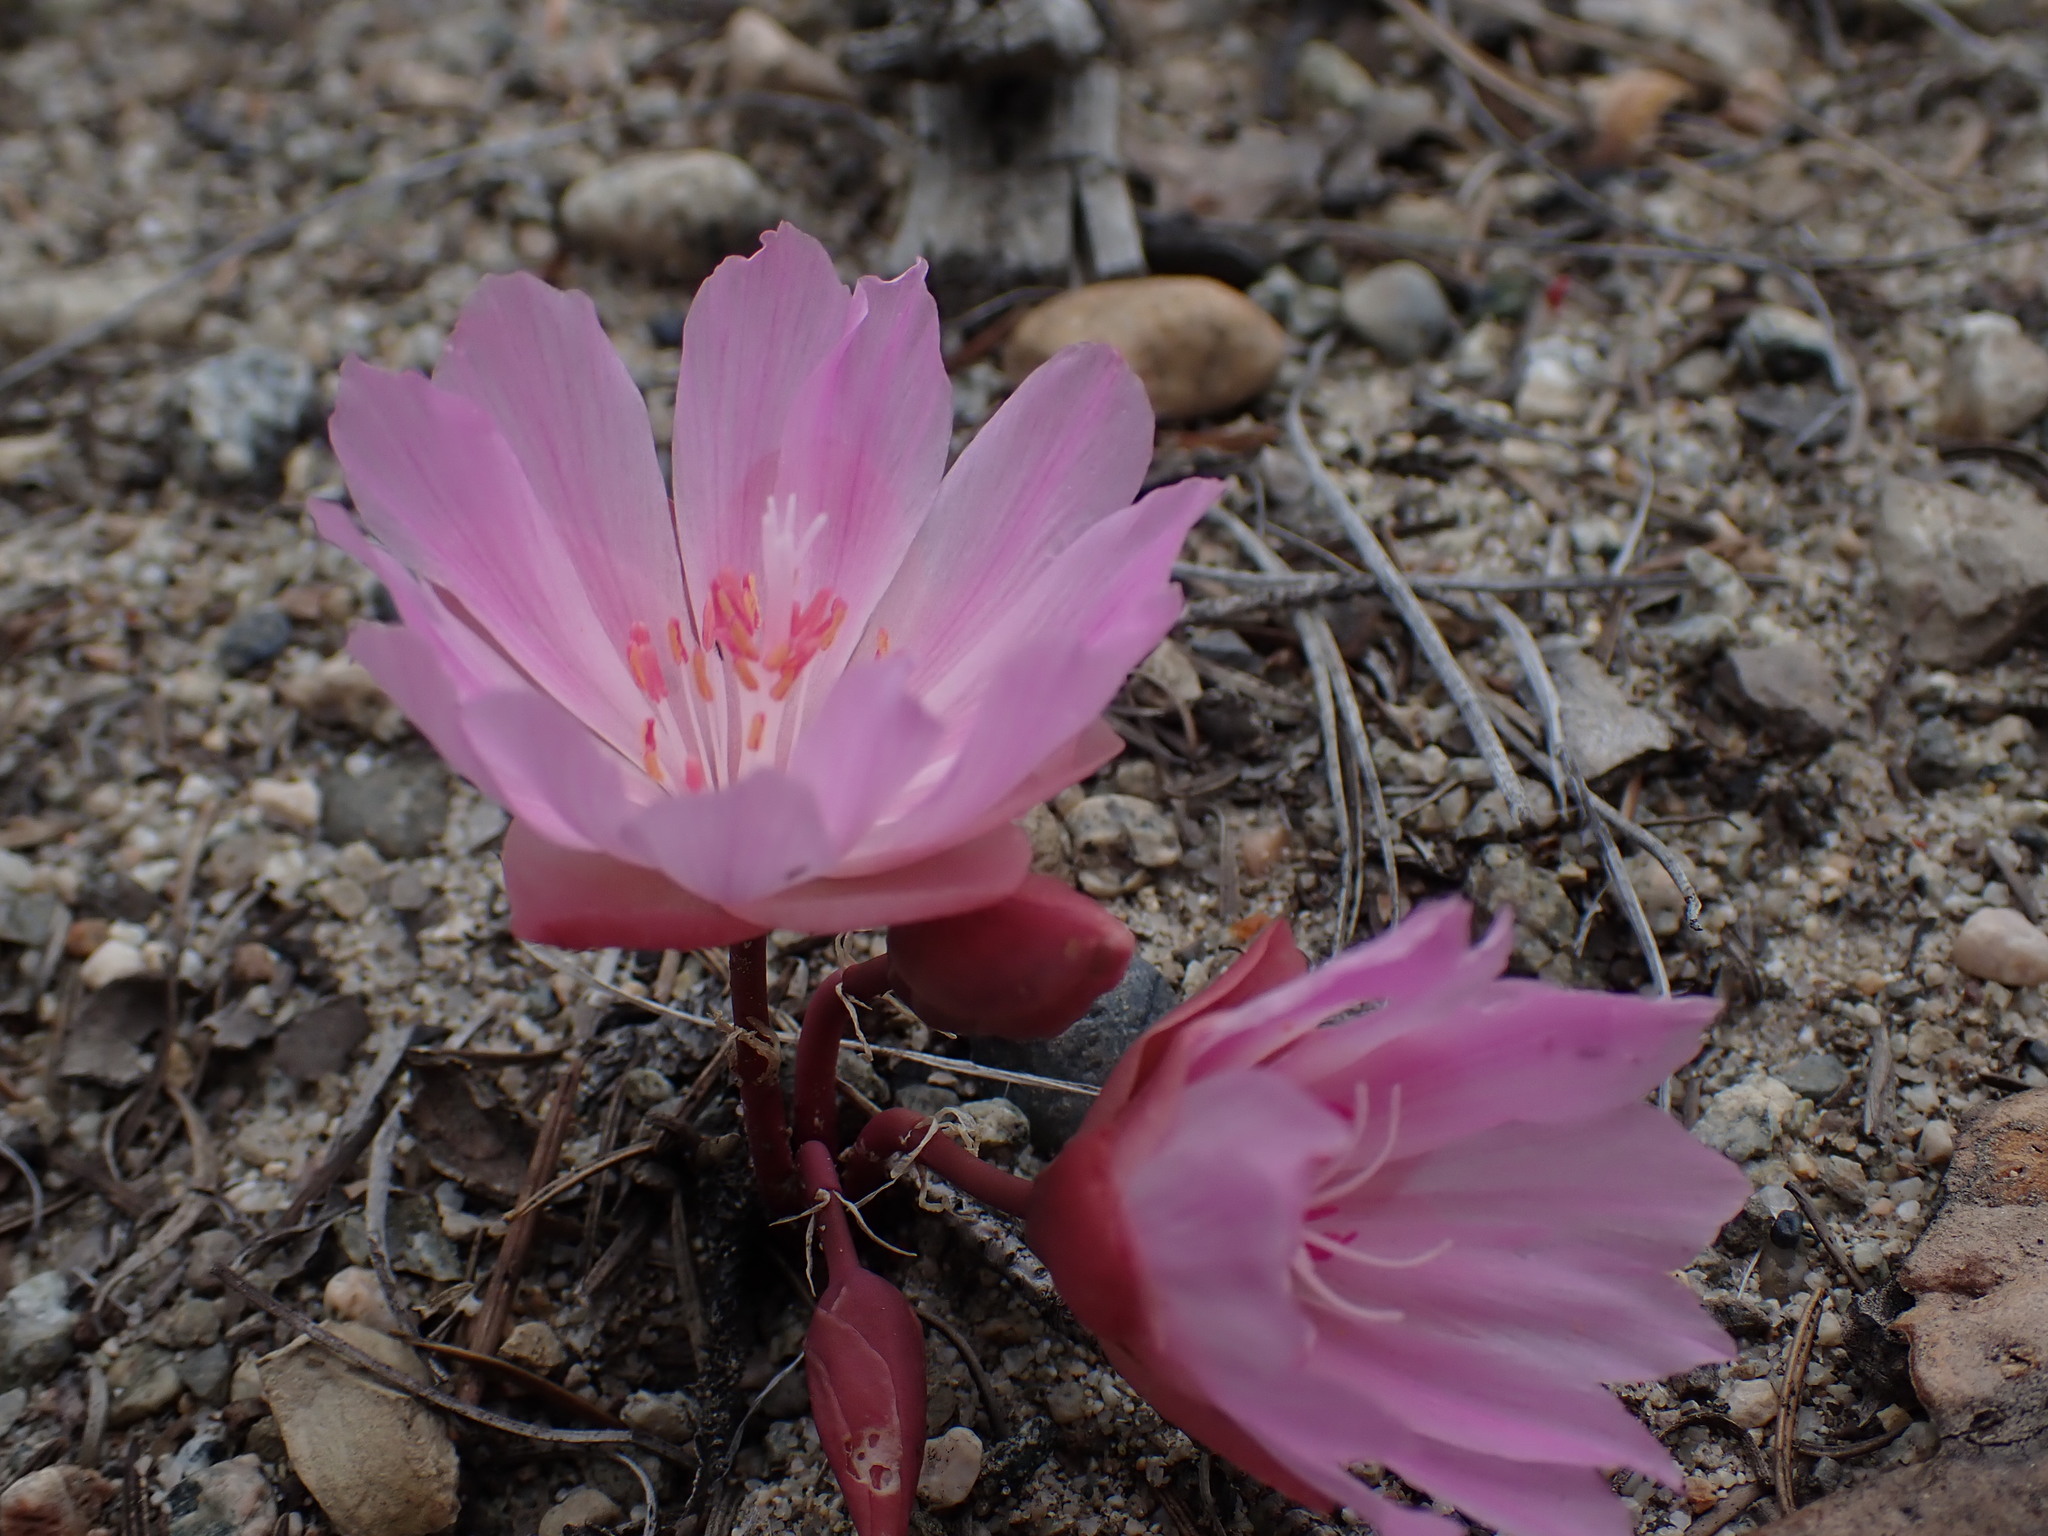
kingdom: Plantae
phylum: Tracheophyta
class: Magnoliopsida
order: Caryophyllales
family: Montiaceae
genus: Lewisia
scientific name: Lewisia rediviva
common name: Bitter-root
